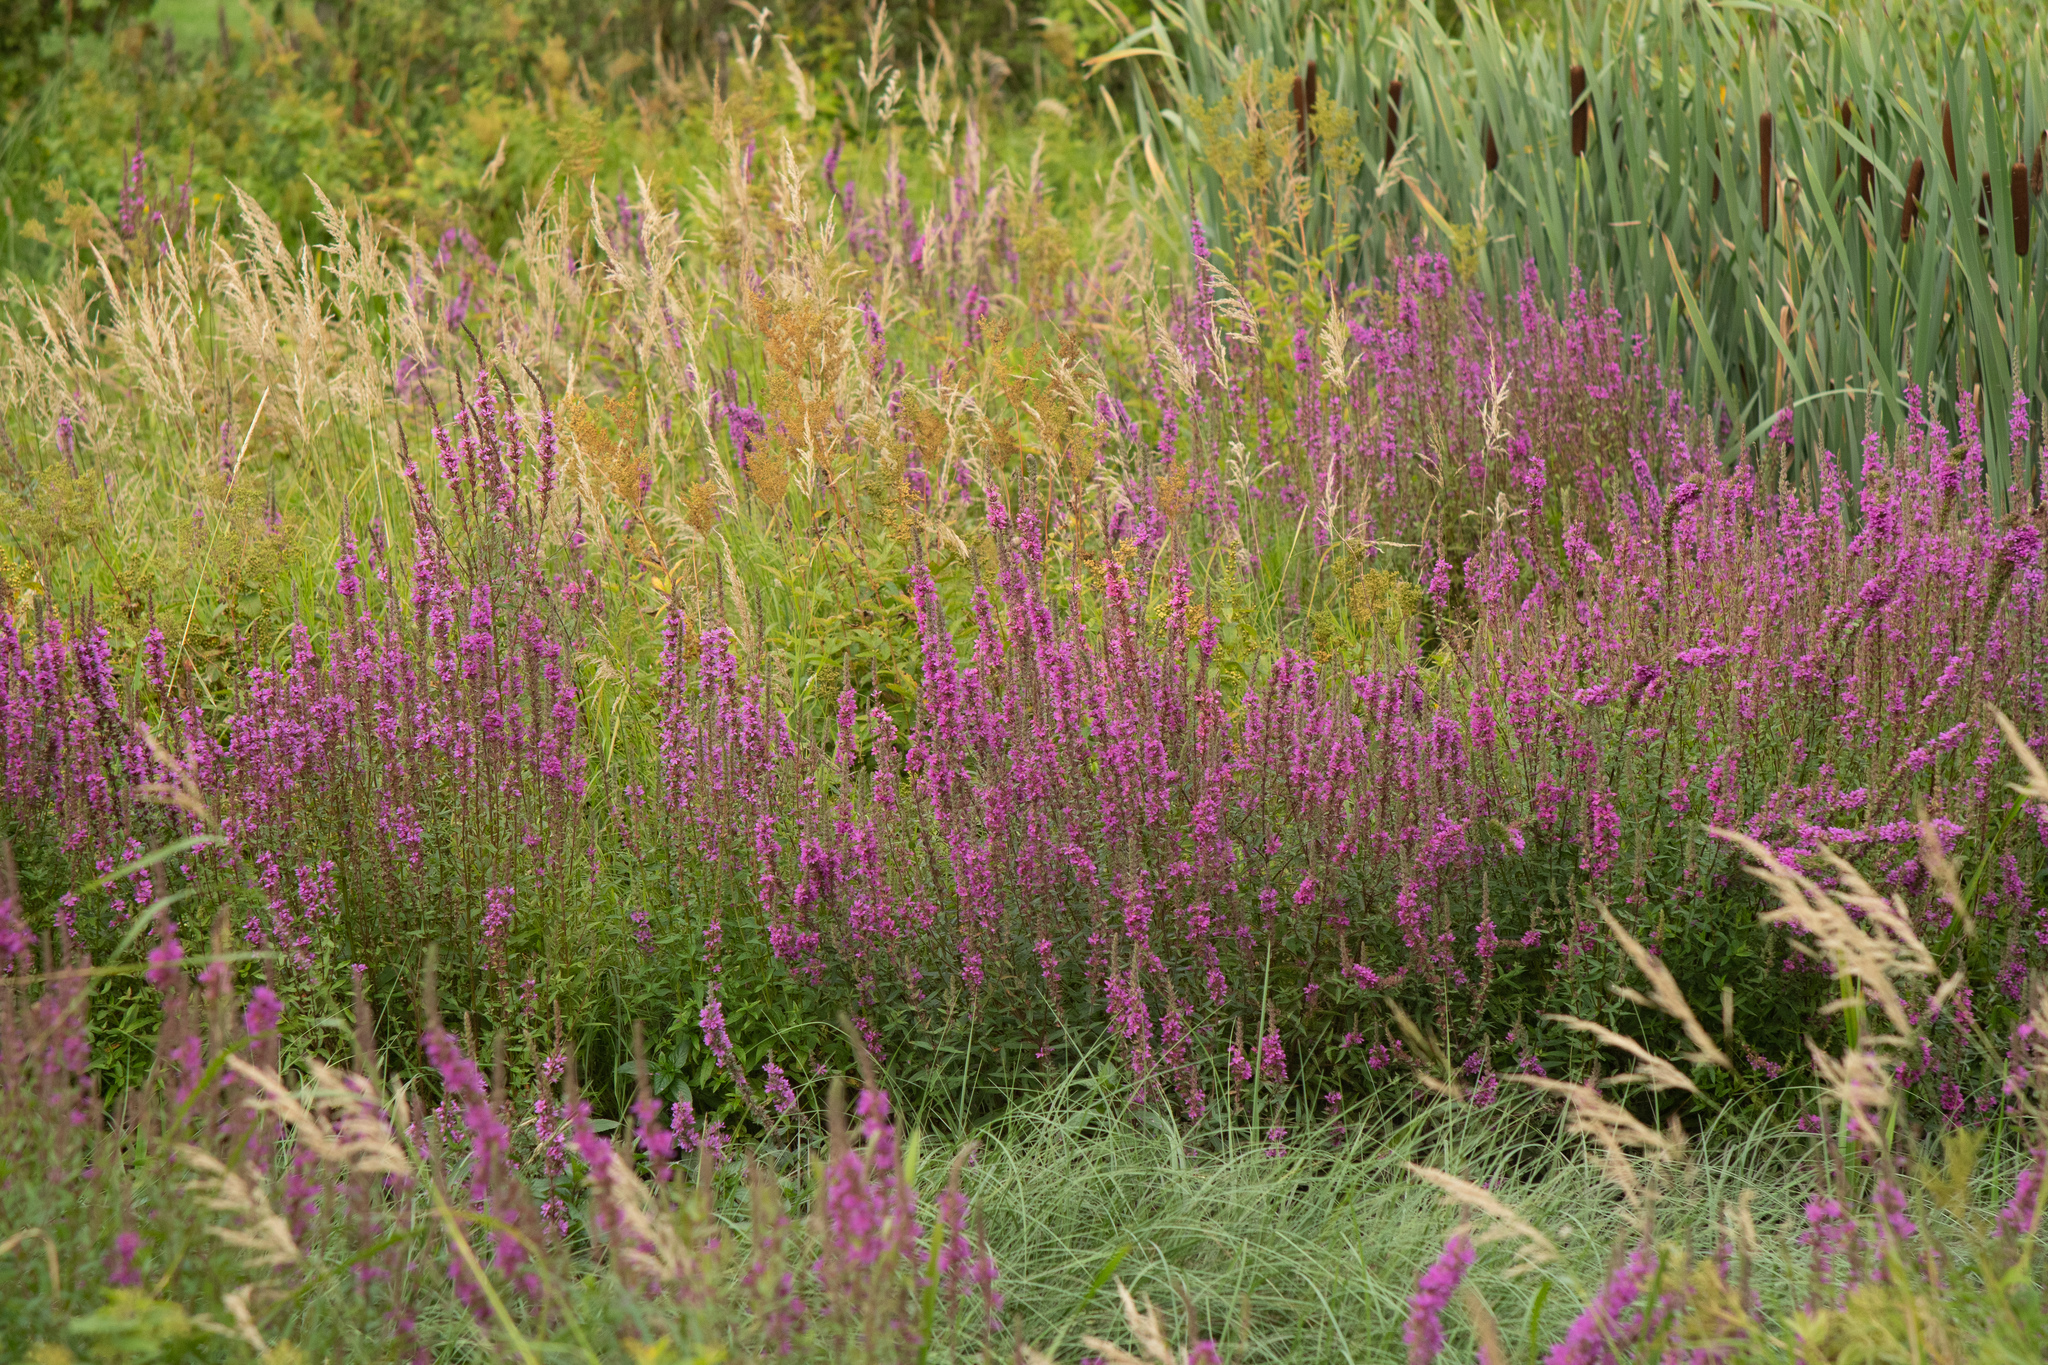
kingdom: Plantae
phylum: Tracheophyta
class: Magnoliopsida
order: Myrtales
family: Lythraceae
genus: Lythrum
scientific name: Lythrum salicaria
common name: Purple loosestrife
